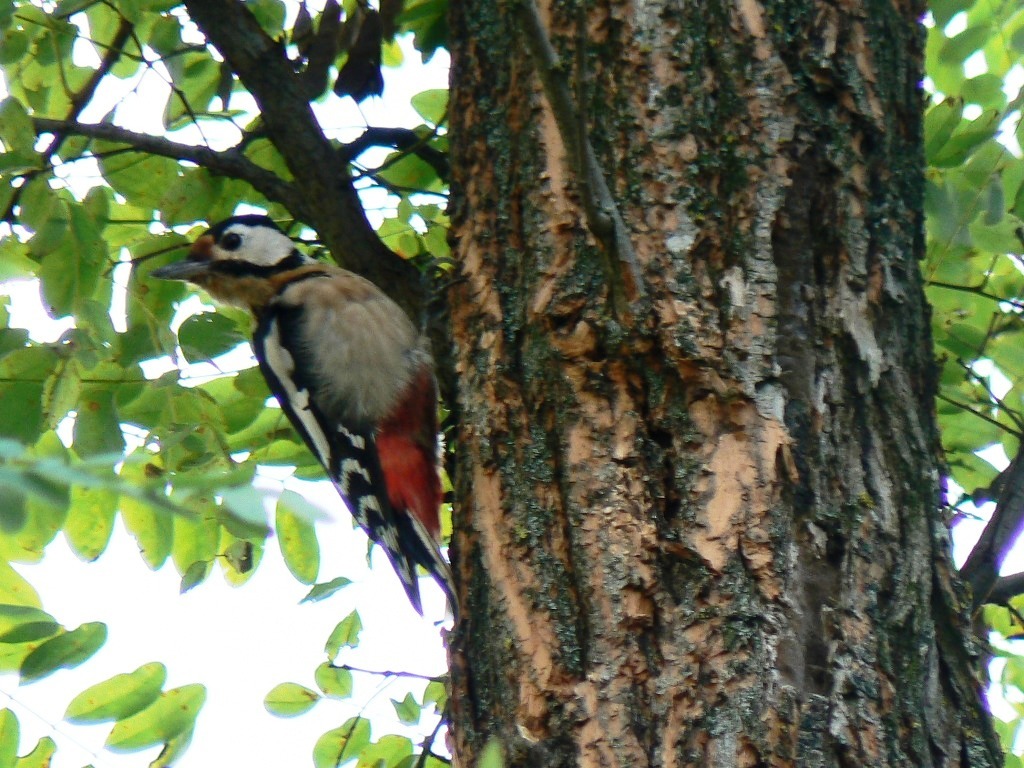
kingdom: Animalia
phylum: Chordata
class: Aves
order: Piciformes
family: Picidae
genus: Dendrocopos
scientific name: Dendrocopos major
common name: Great spotted woodpecker
